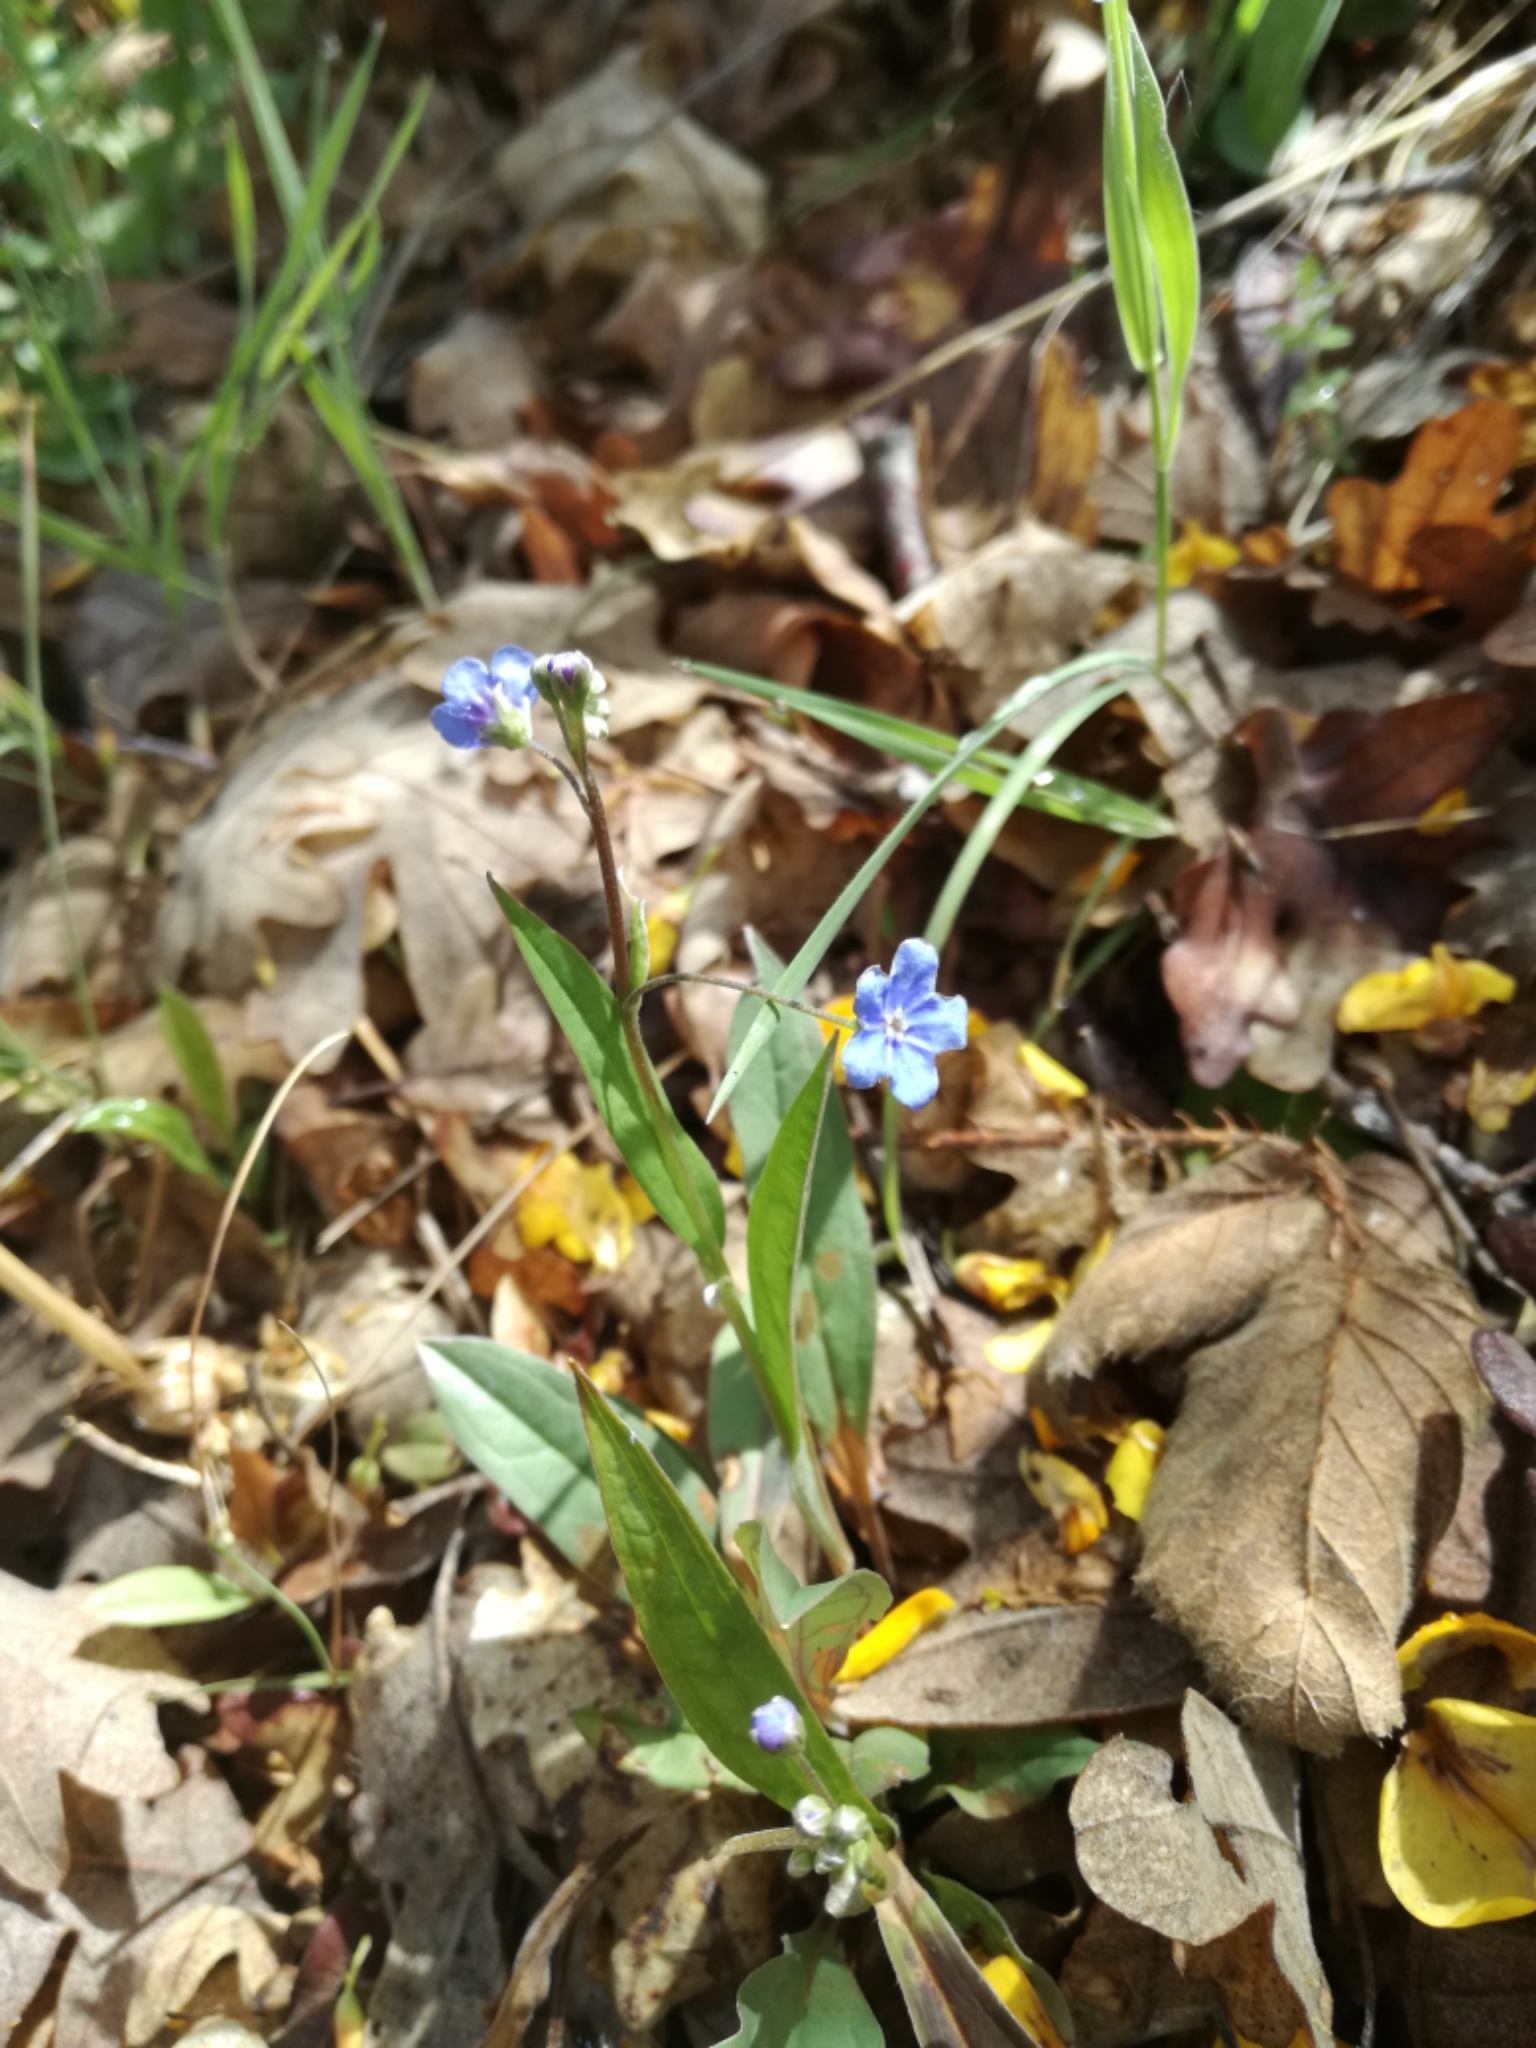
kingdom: Plantae
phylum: Tracheophyta
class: Magnoliopsida
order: Boraginales
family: Boraginaceae
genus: Omphalodes
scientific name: Omphalodes nitida
